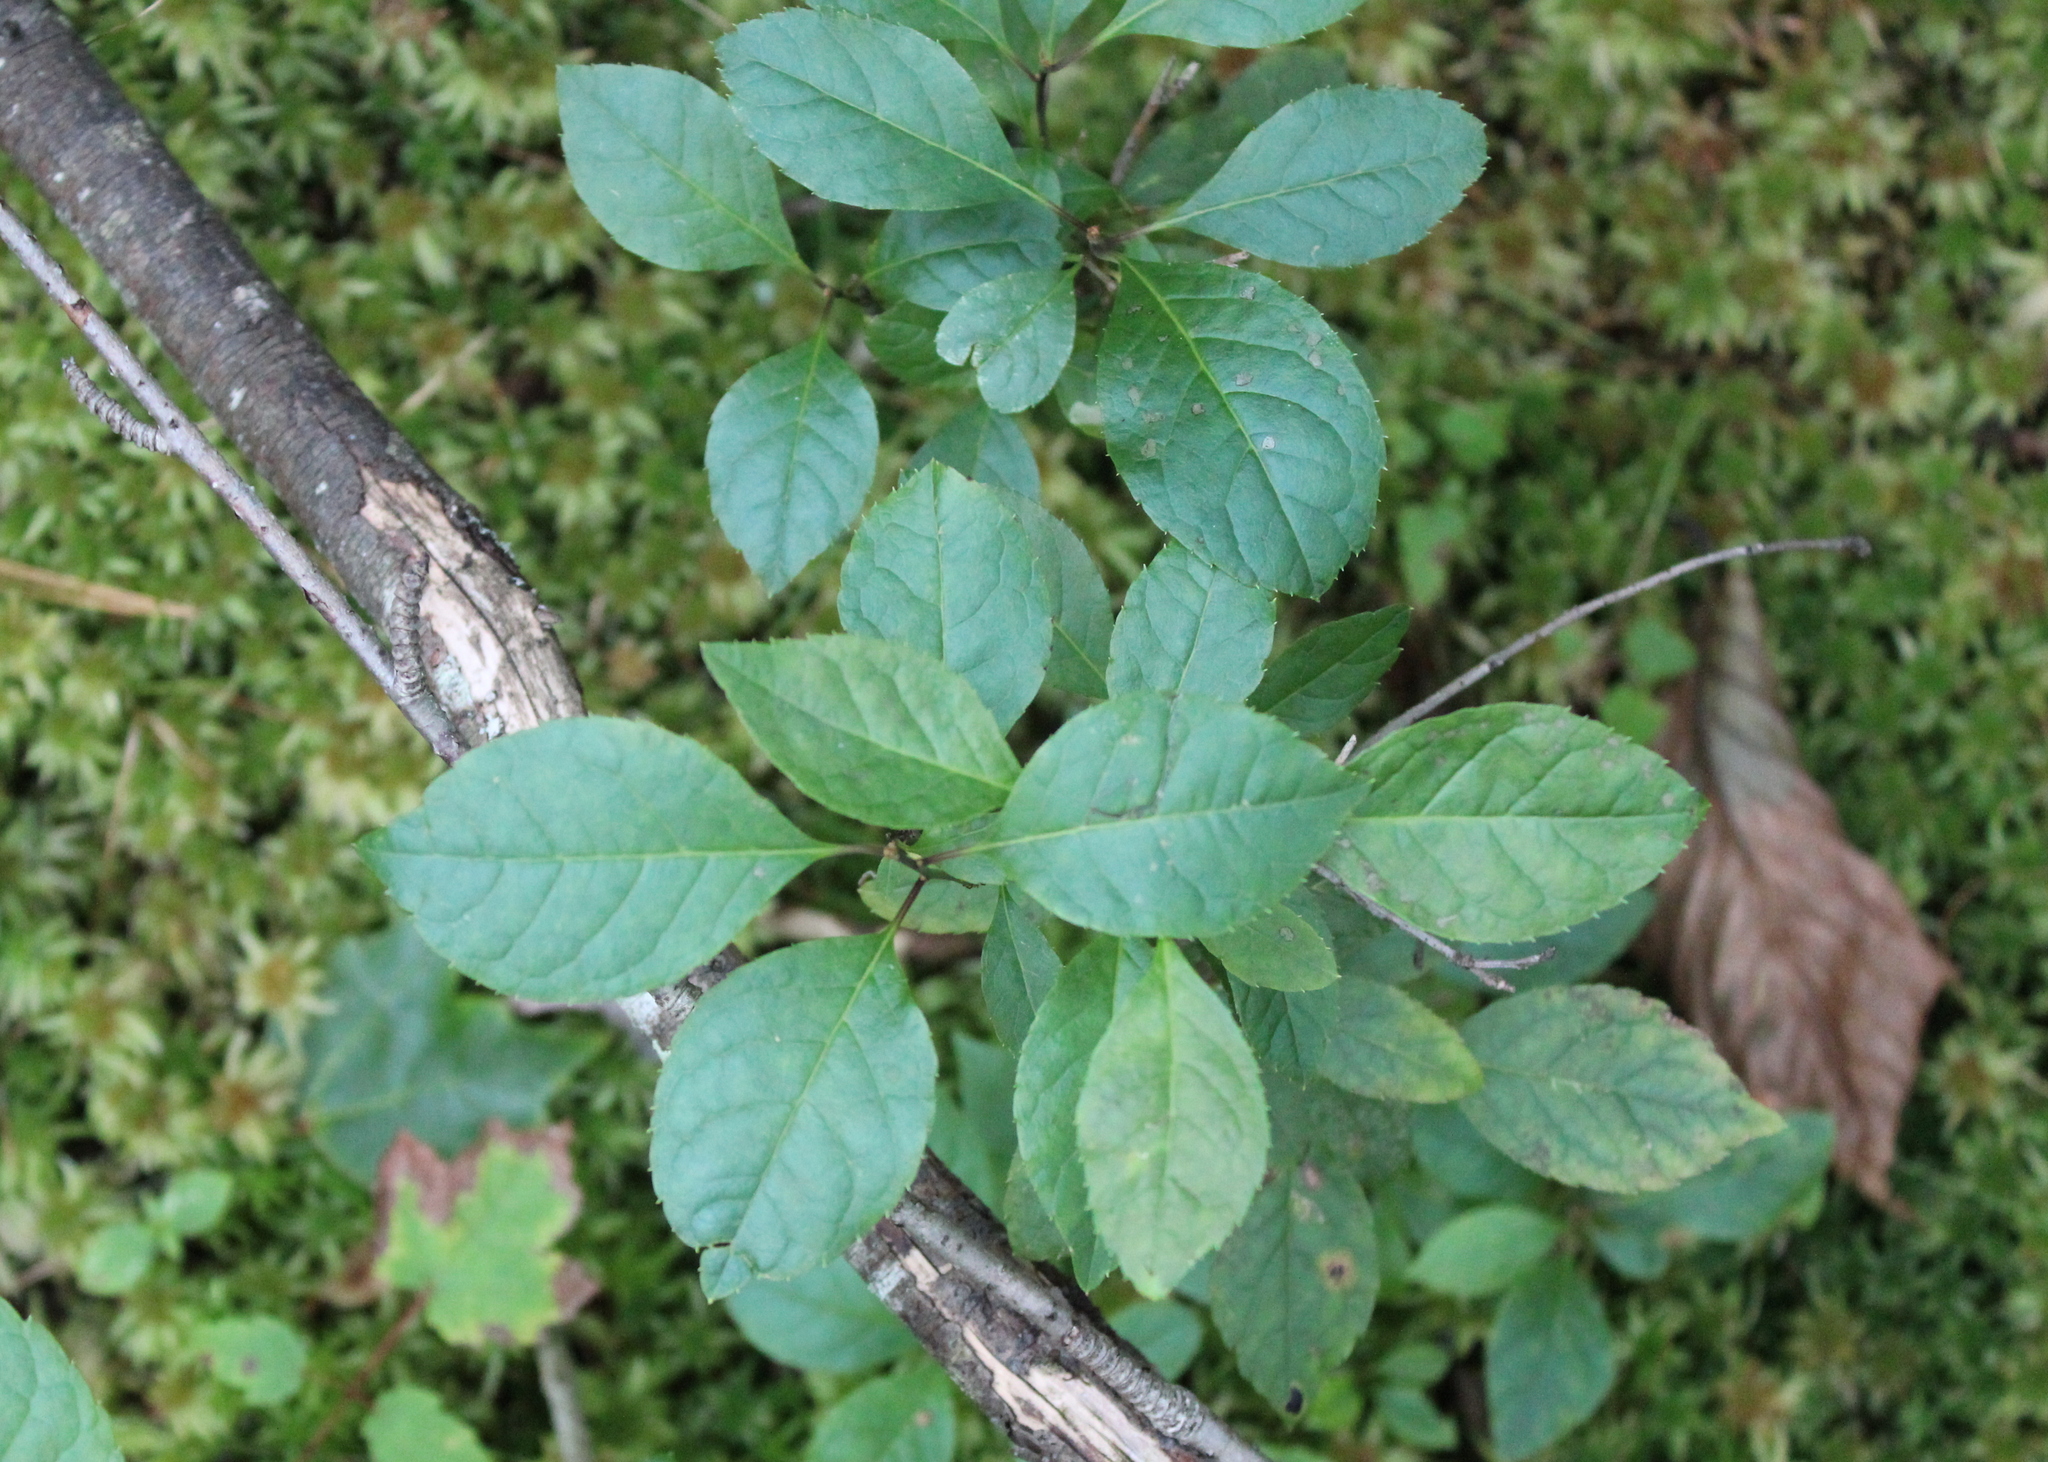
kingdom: Plantae
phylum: Tracheophyta
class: Magnoliopsida
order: Aquifoliales
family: Aquifoliaceae
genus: Ilex
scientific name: Ilex verticillata
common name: Virginia winterberry
